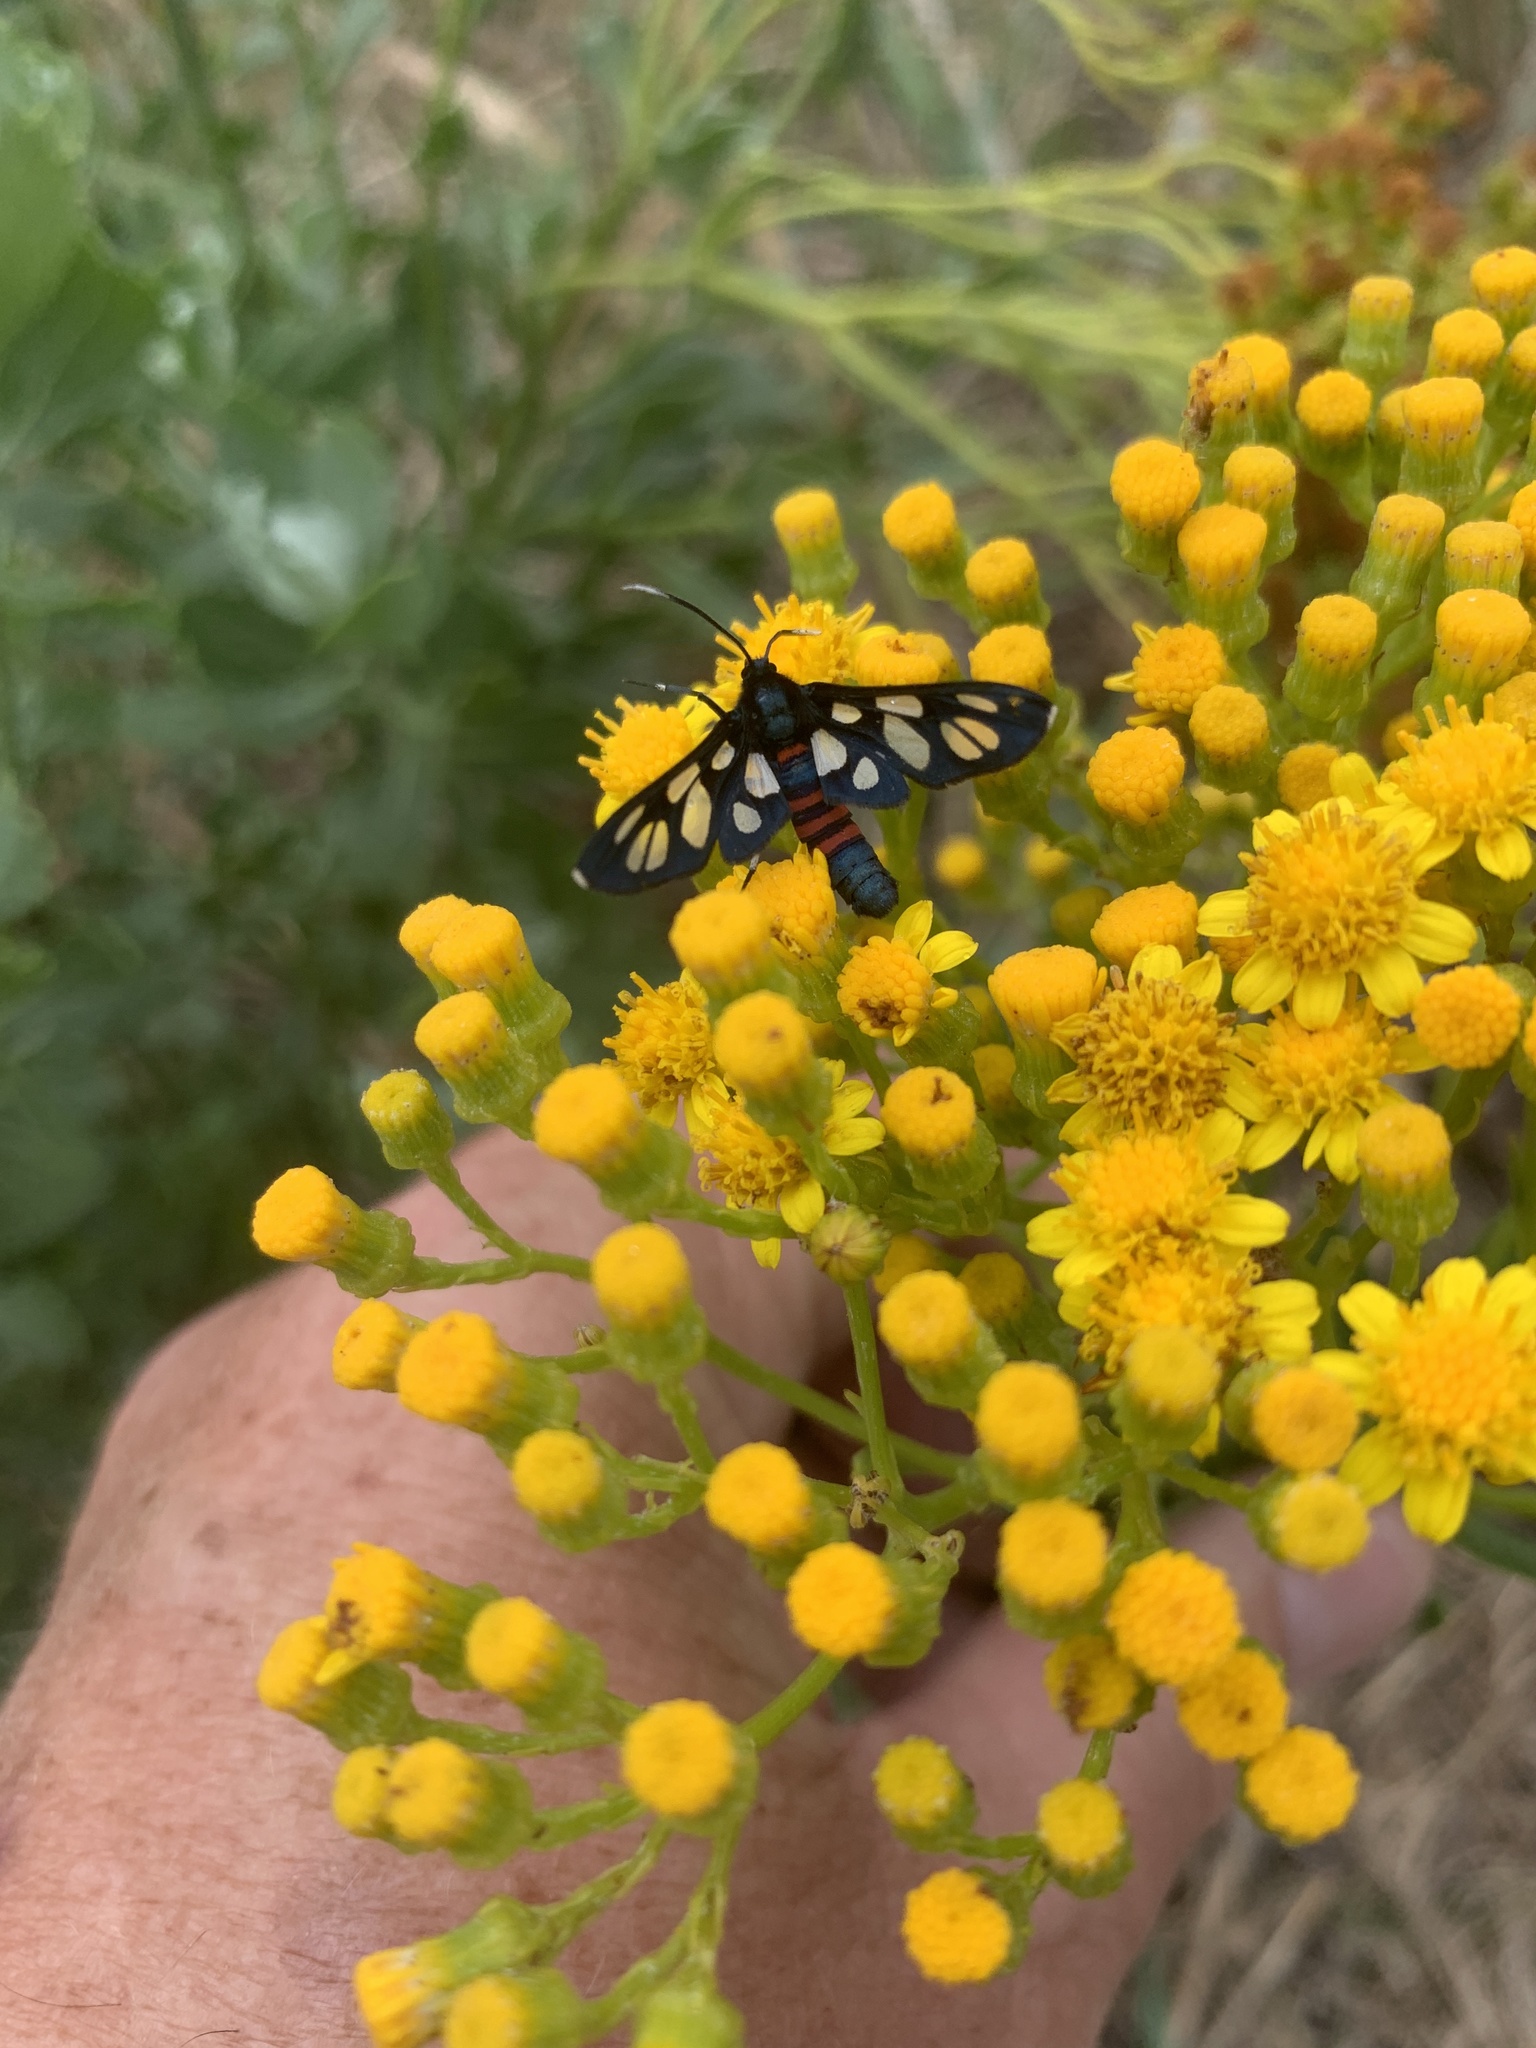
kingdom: Animalia
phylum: Arthropoda
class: Insecta
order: Lepidoptera
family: Erebidae
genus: Amata
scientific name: Amata cerbera
